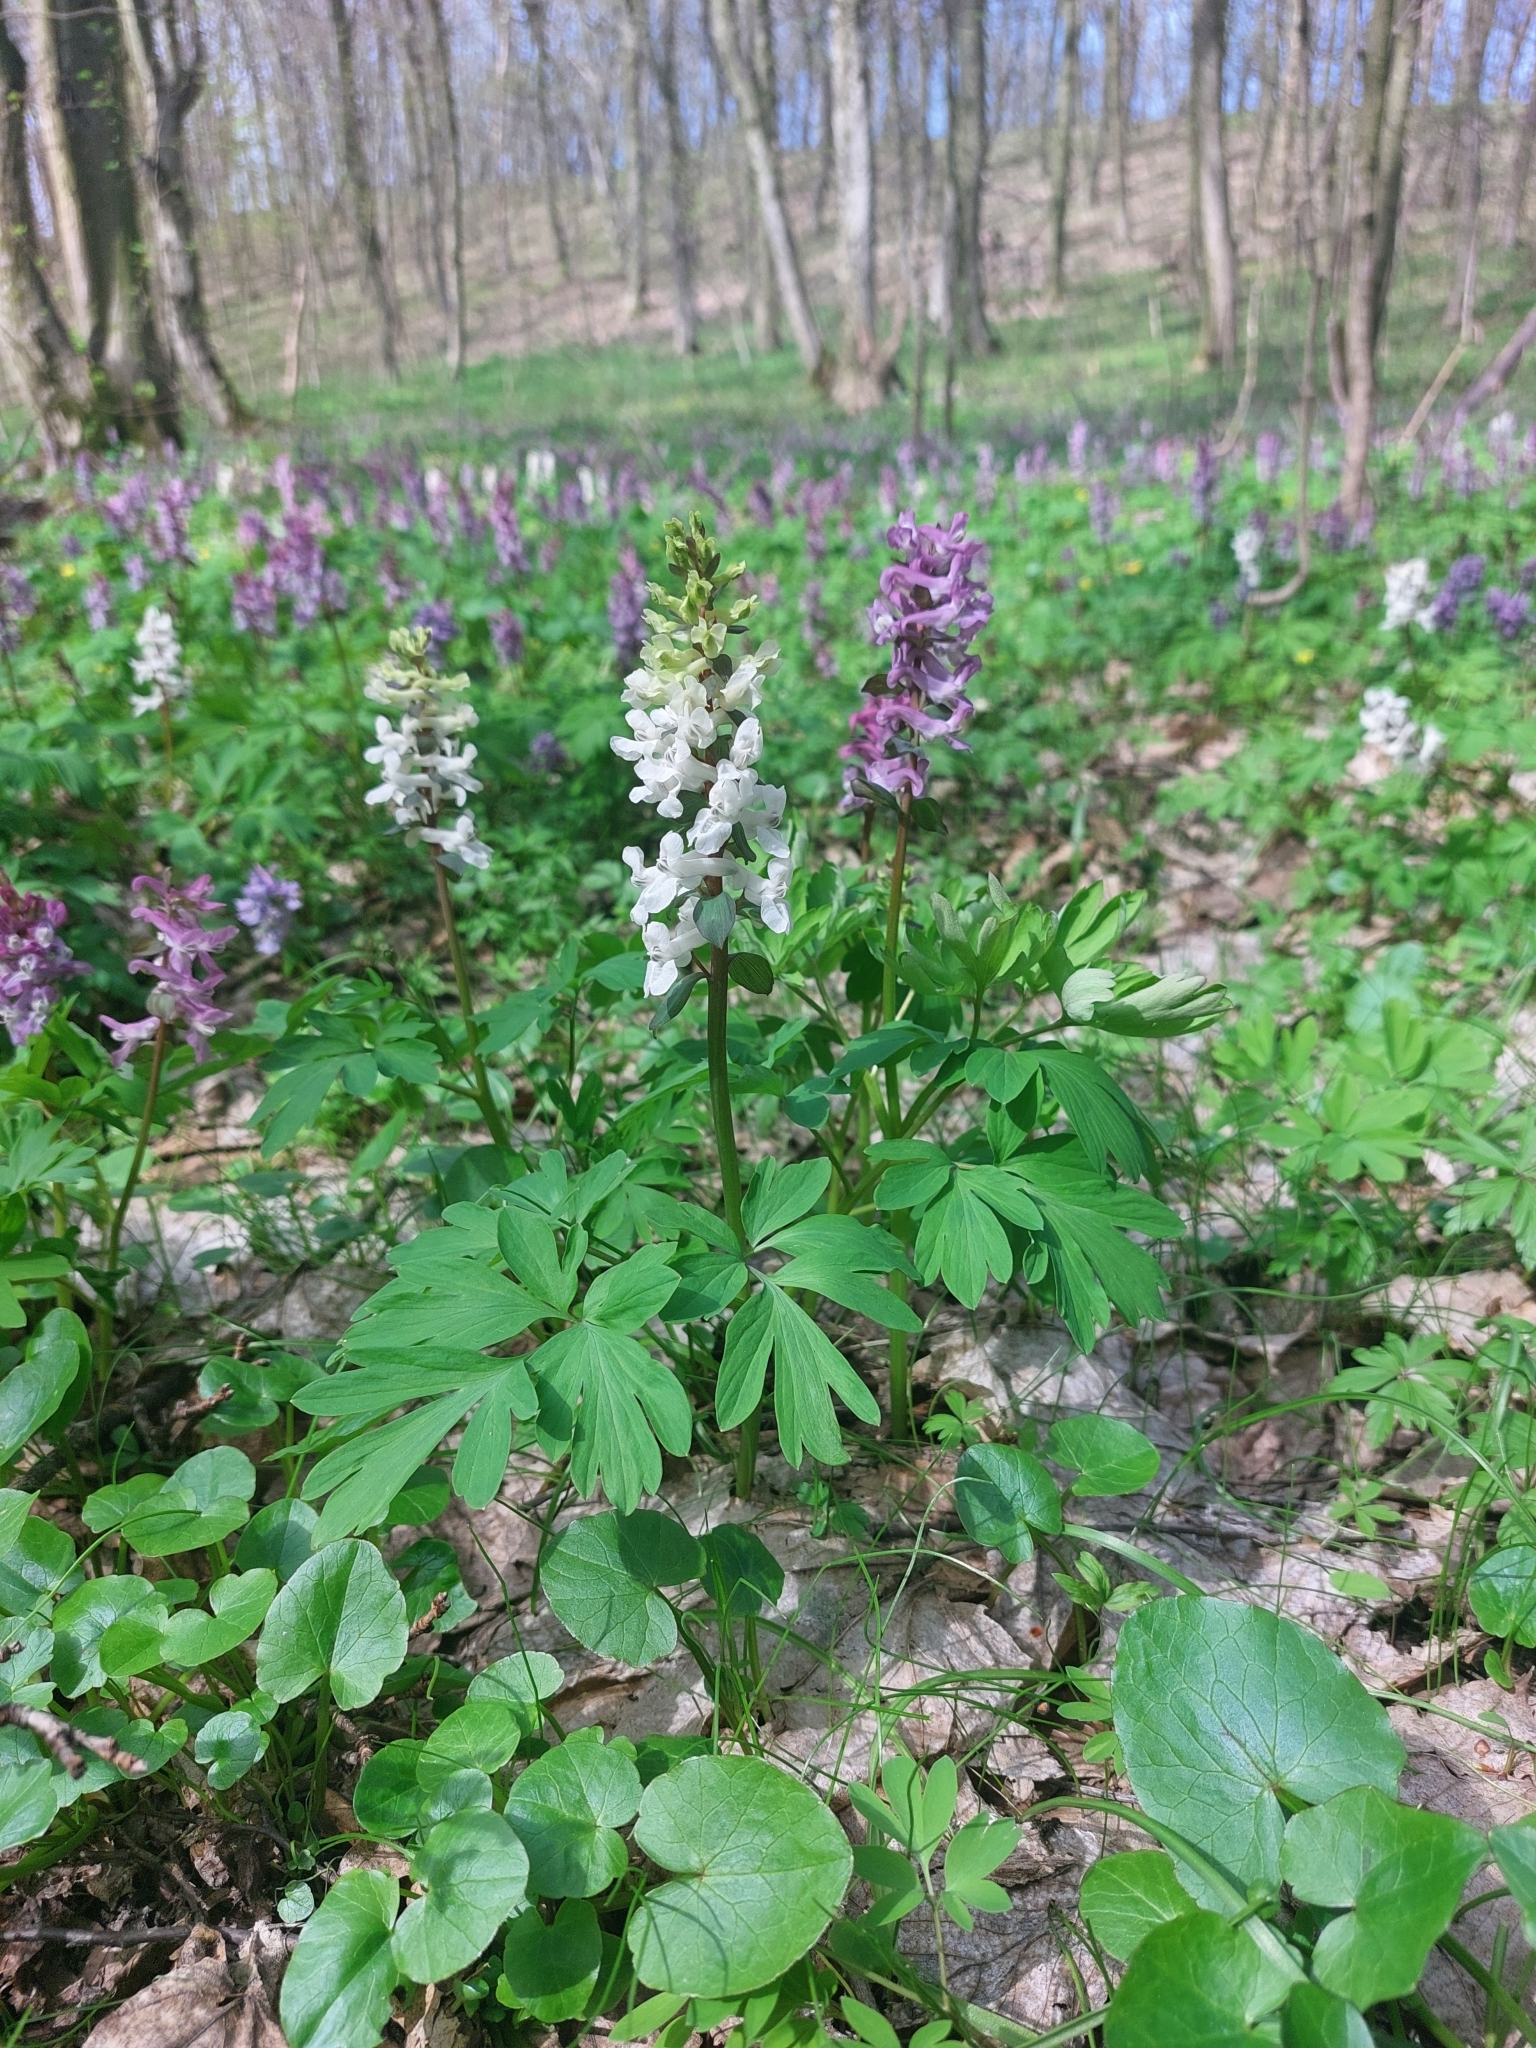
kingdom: Plantae
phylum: Tracheophyta
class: Magnoliopsida
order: Ranunculales
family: Papaveraceae
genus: Corydalis
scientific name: Corydalis cava
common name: Hollowroot
